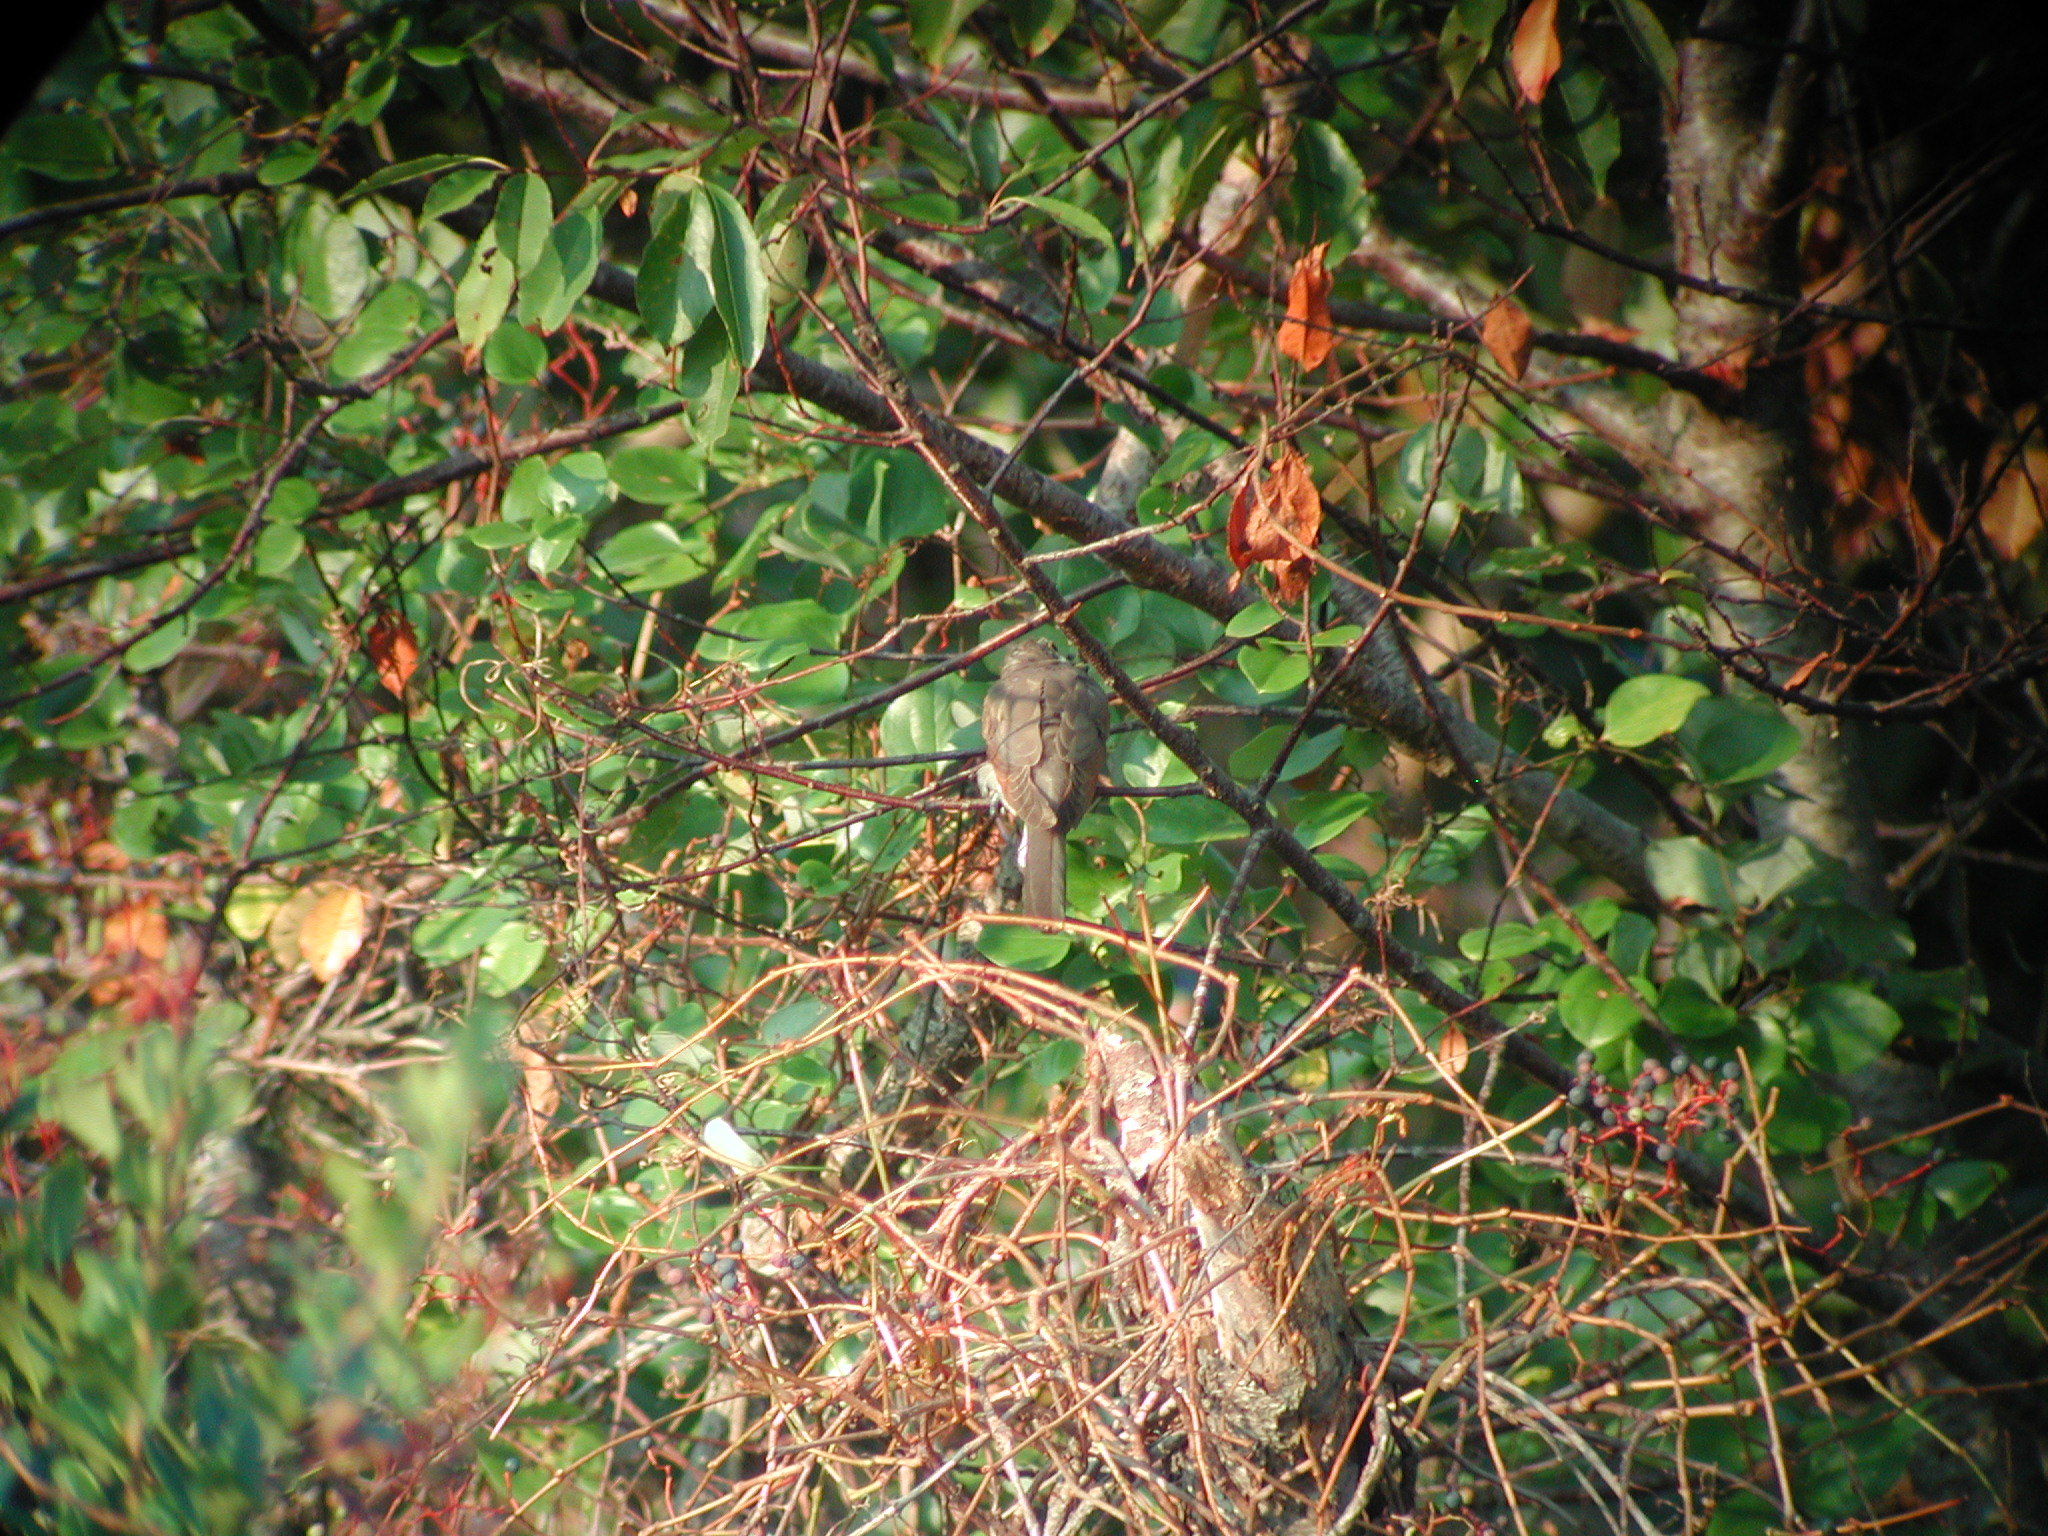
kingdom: Animalia
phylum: Chordata
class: Aves
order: Cuculiformes
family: Cuculidae
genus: Coccyzus
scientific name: Coccyzus americanus
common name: Yellow-billed cuckoo
